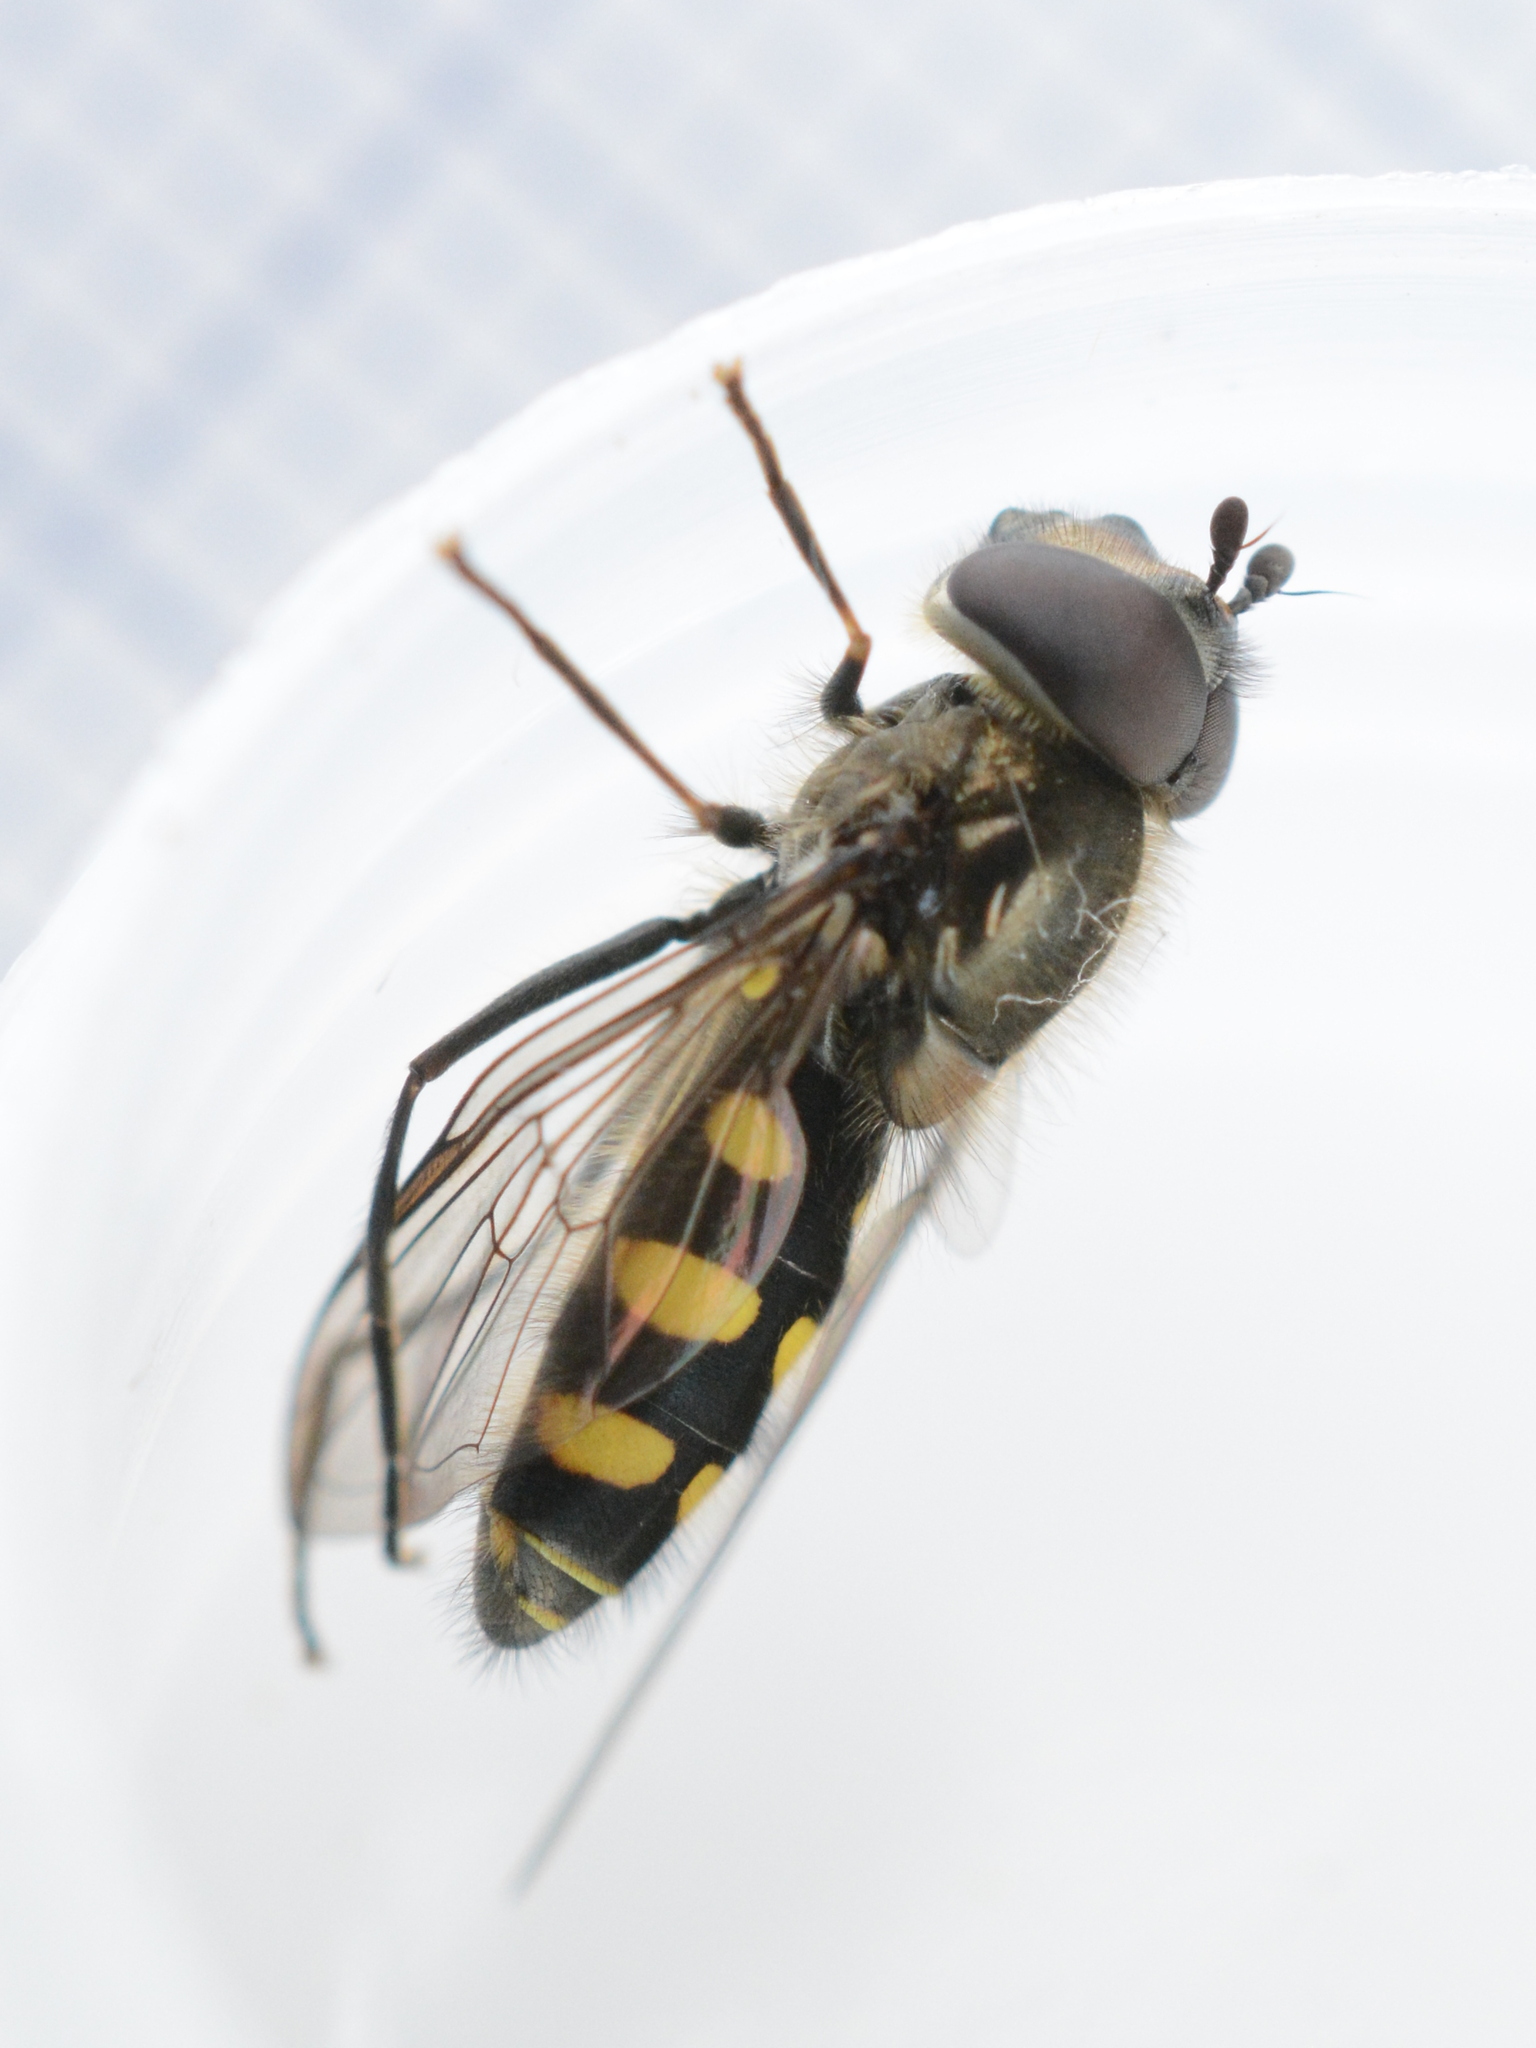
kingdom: Animalia
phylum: Arthropoda
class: Insecta
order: Diptera
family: Syrphidae
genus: Melangyna
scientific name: Melangyna lasiophthalma
